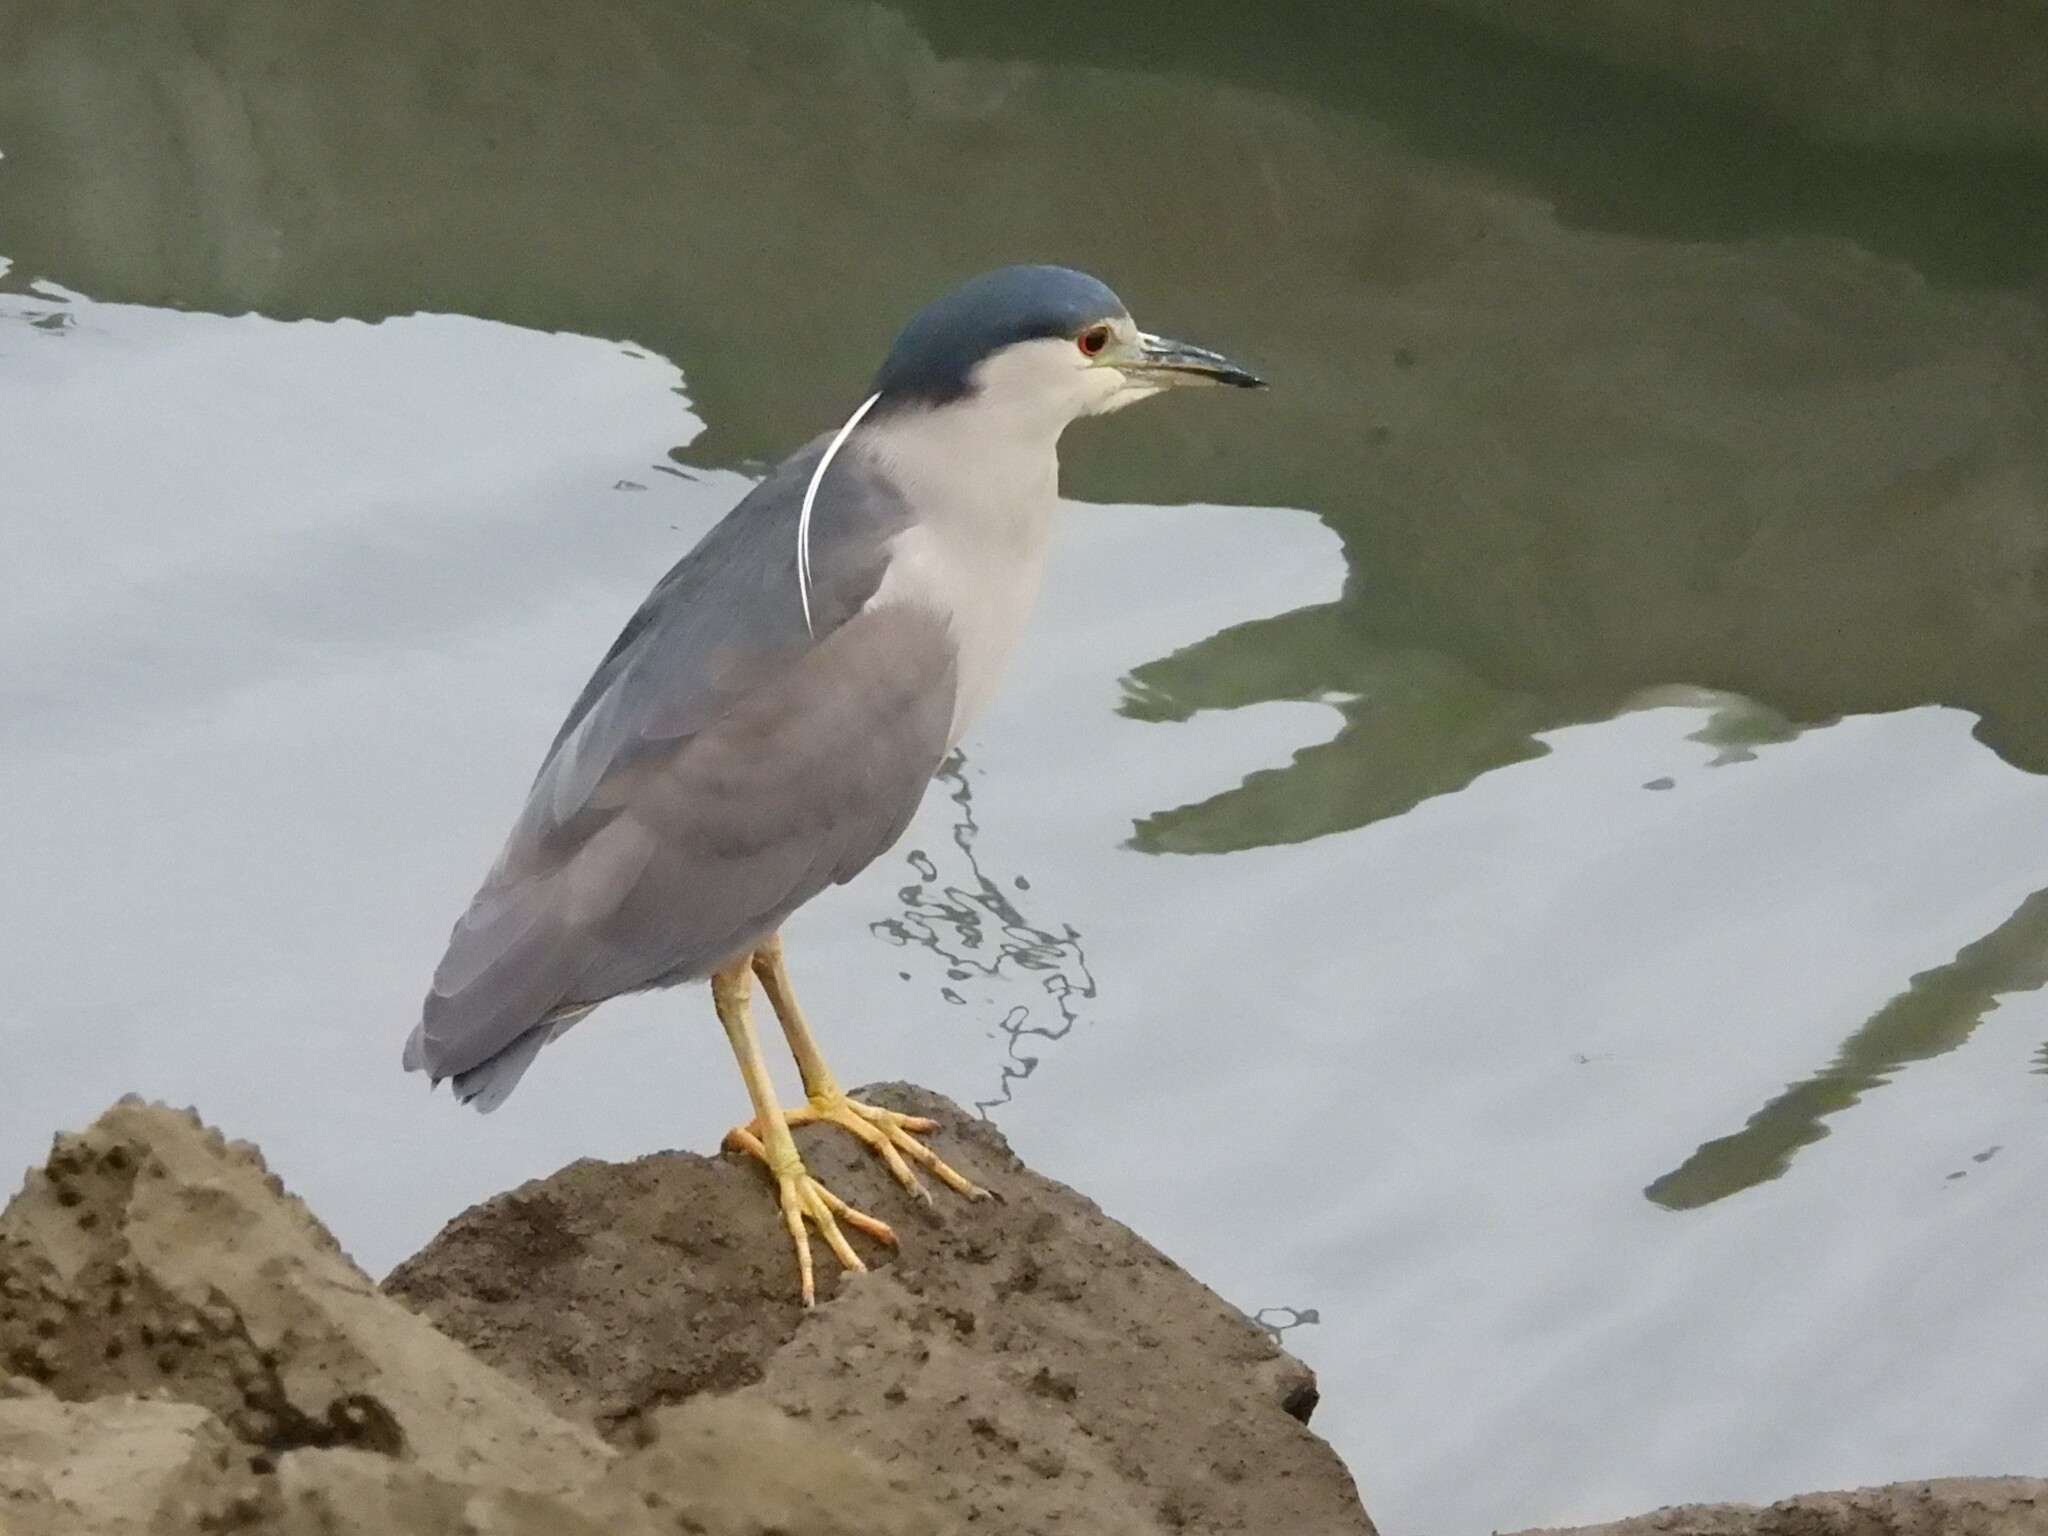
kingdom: Animalia
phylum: Chordata
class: Aves
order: Pelecaniformes
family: Ardeidae
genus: Nycticorax
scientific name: Nycticorax nycticorax
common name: Black-crowned night heron
